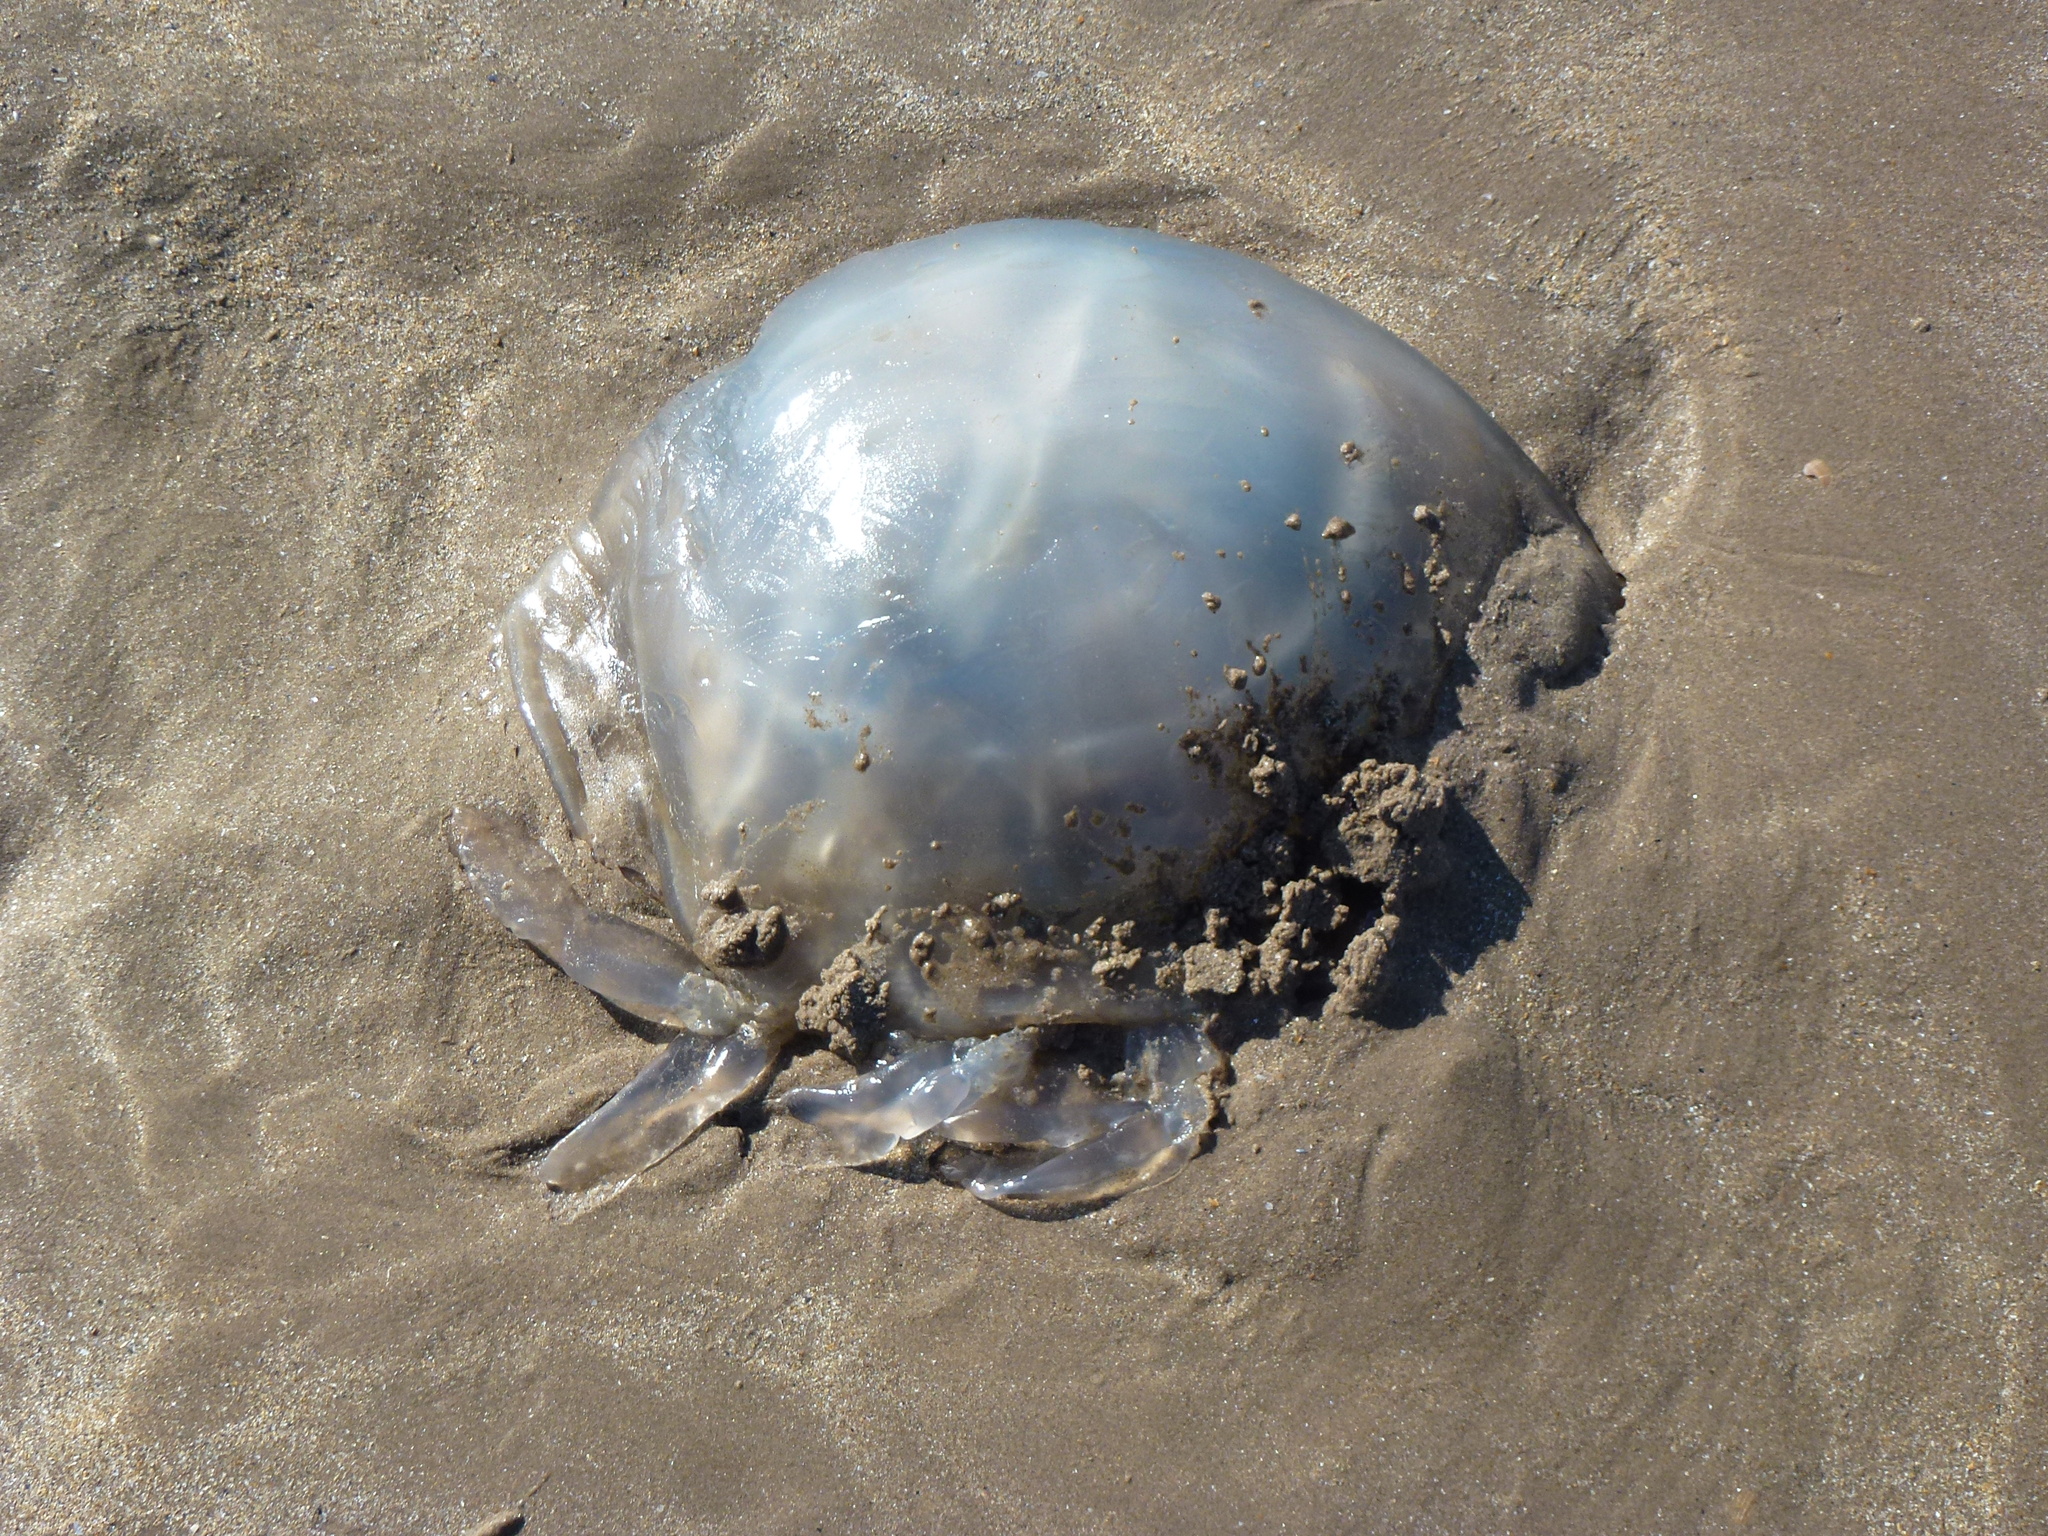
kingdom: Animalia
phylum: Cnidaria
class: Scyphozoa
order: Rhizostomeae
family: Rhizostomatidae
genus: Rhizostoma
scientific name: Rhizostoma octopus
